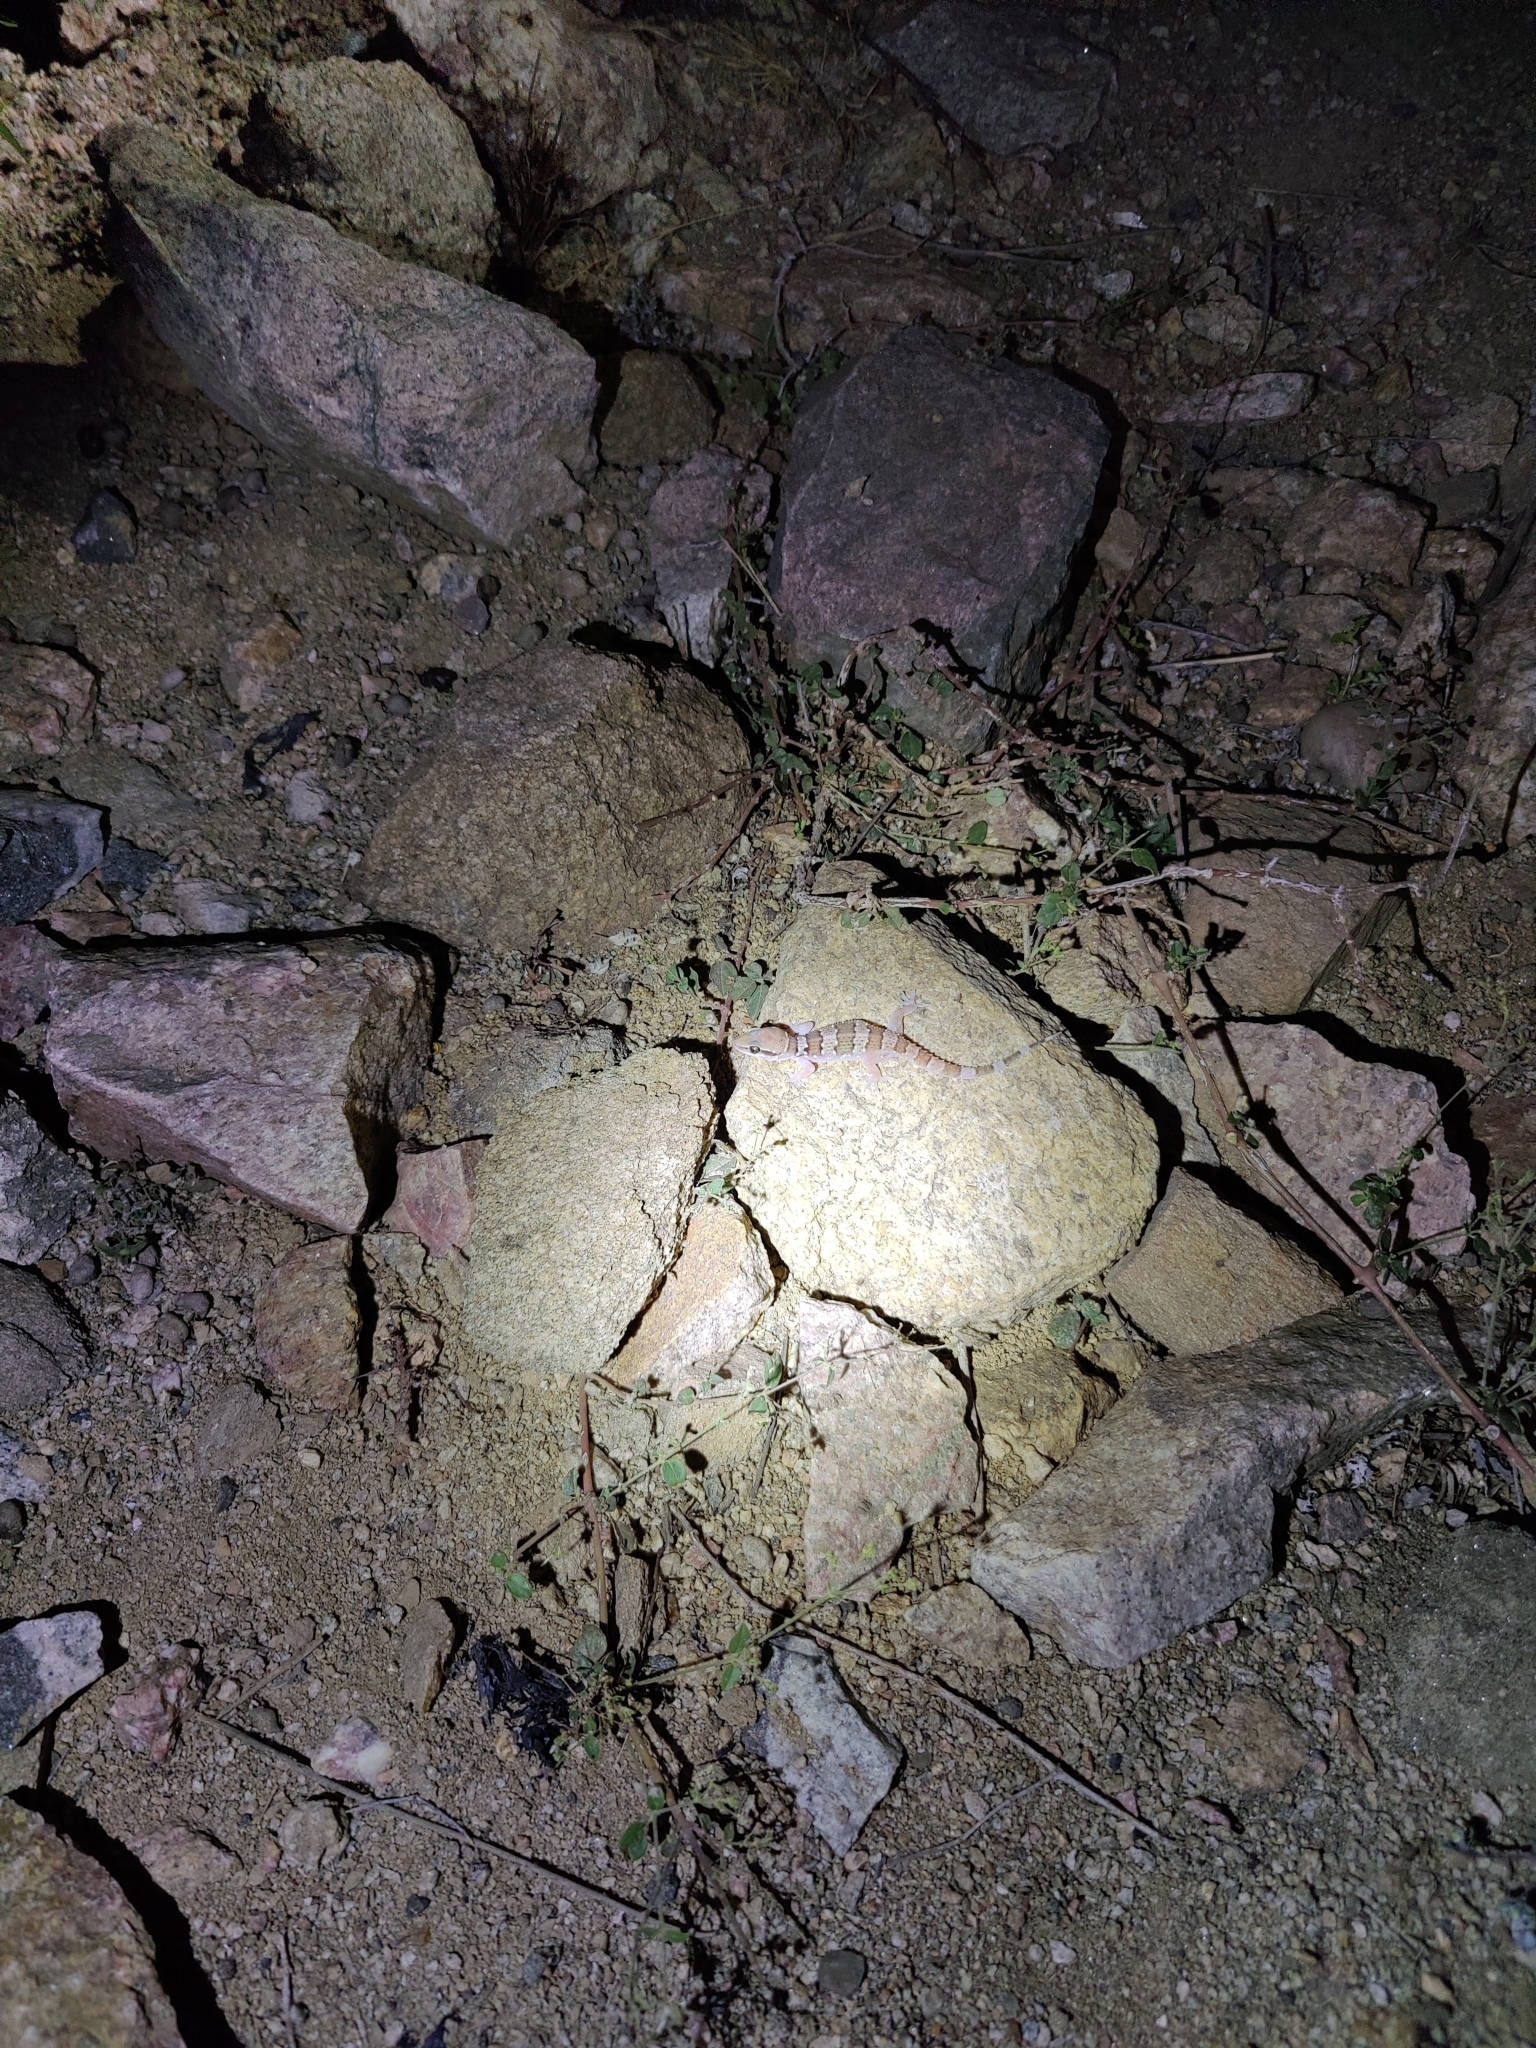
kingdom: Animalia
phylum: Chordata
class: Squamata
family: Gekkonidae
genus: Hemidactylus
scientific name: Hemidactylus triedrus
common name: Blotched house gecko
